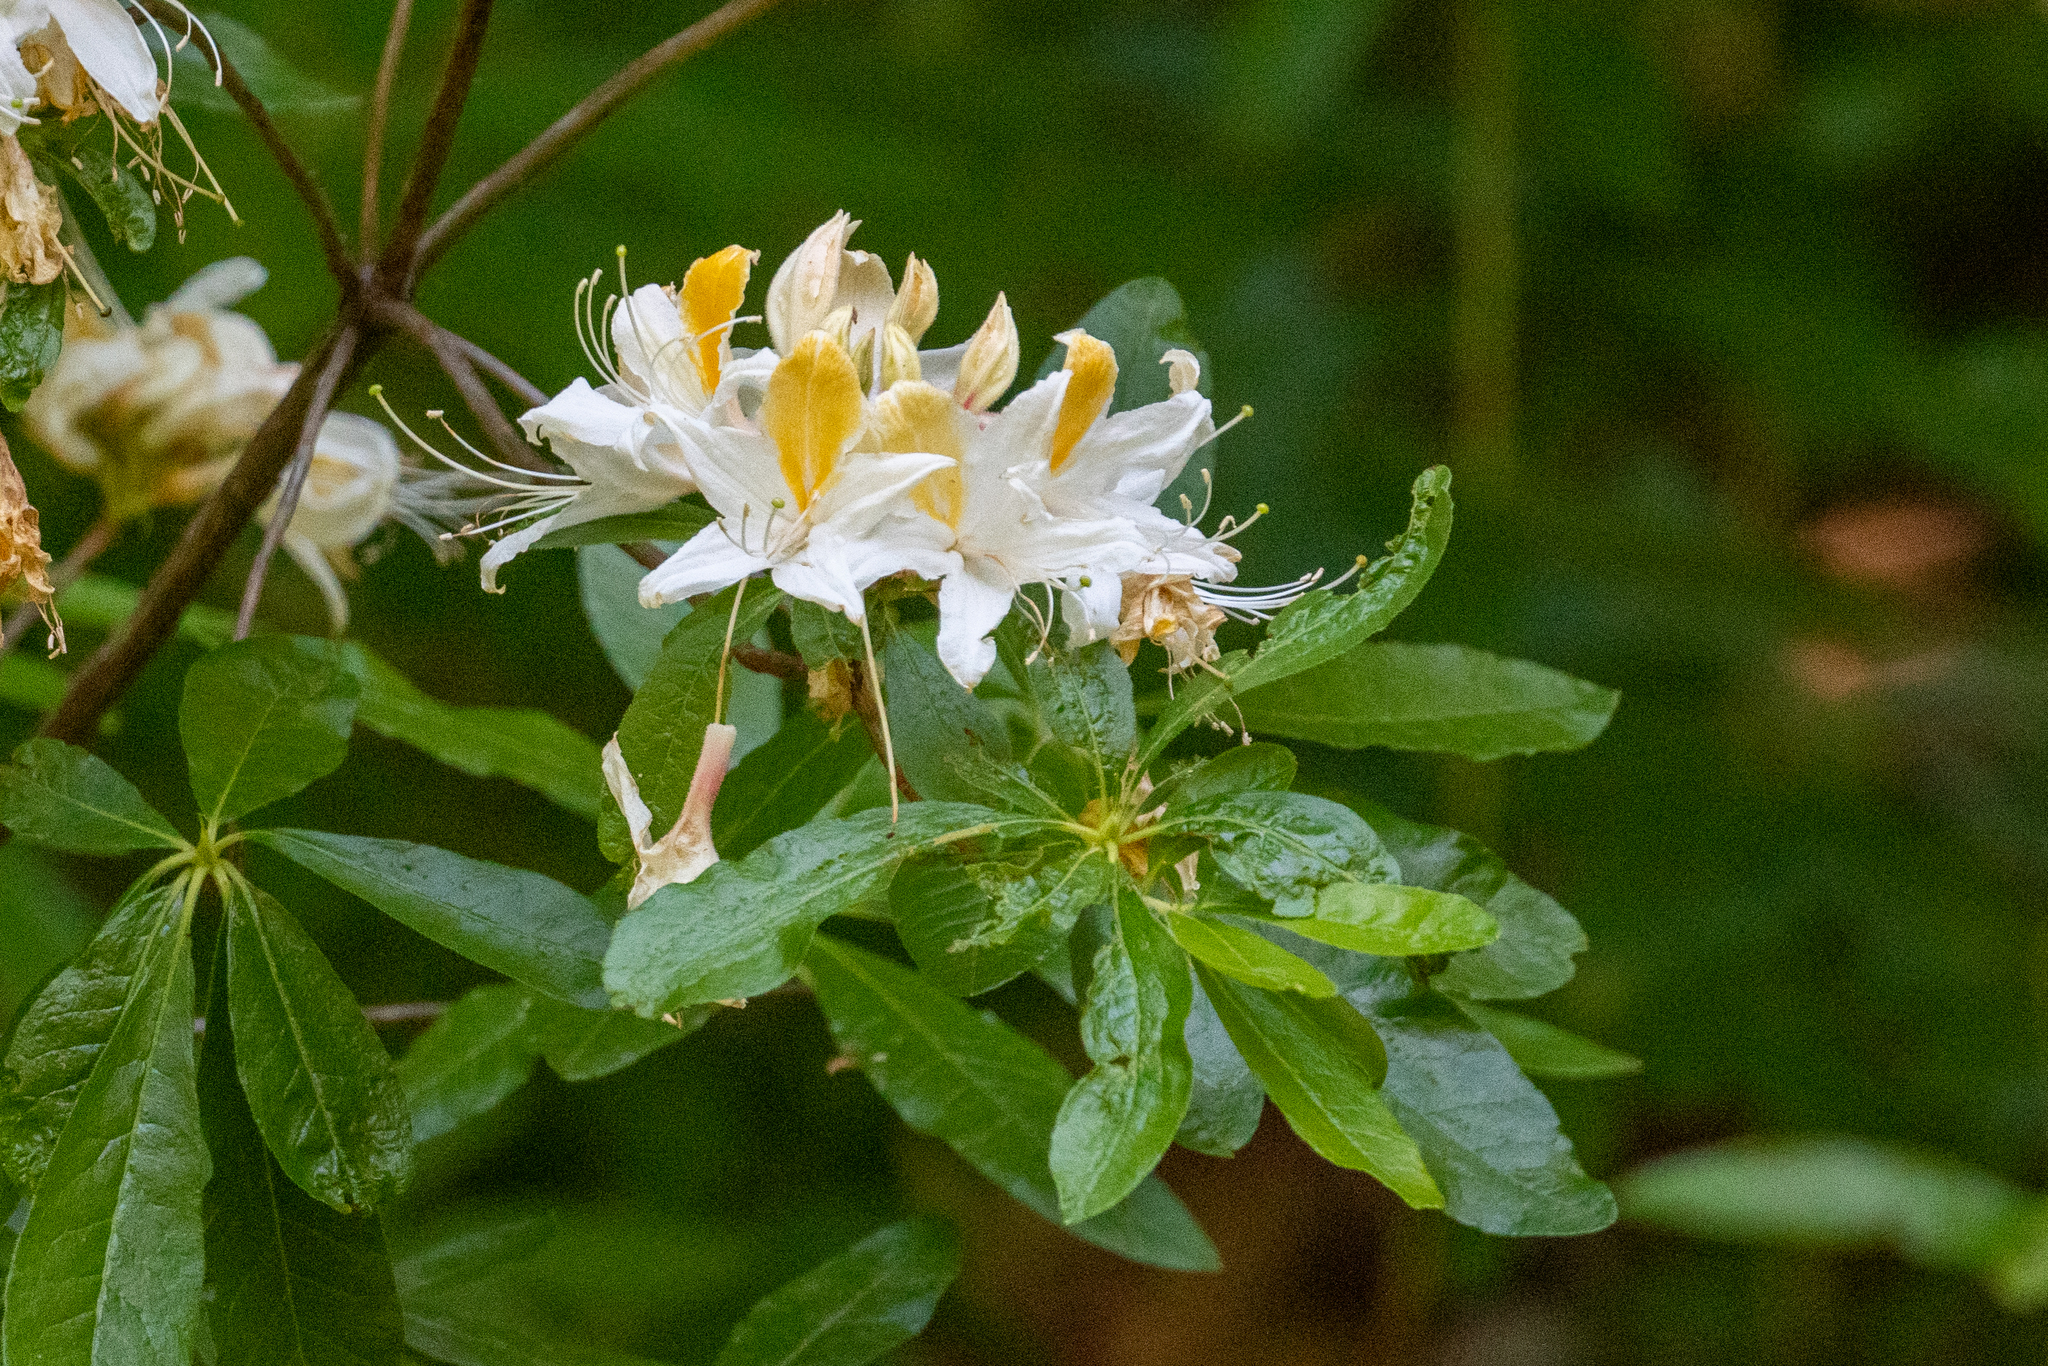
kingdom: Plantae
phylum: Tracheophyta
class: Magnoliopsida
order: Ericales
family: Ericaceae
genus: Rhododendron
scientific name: Rhododendron occidentale
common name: Western azalea
